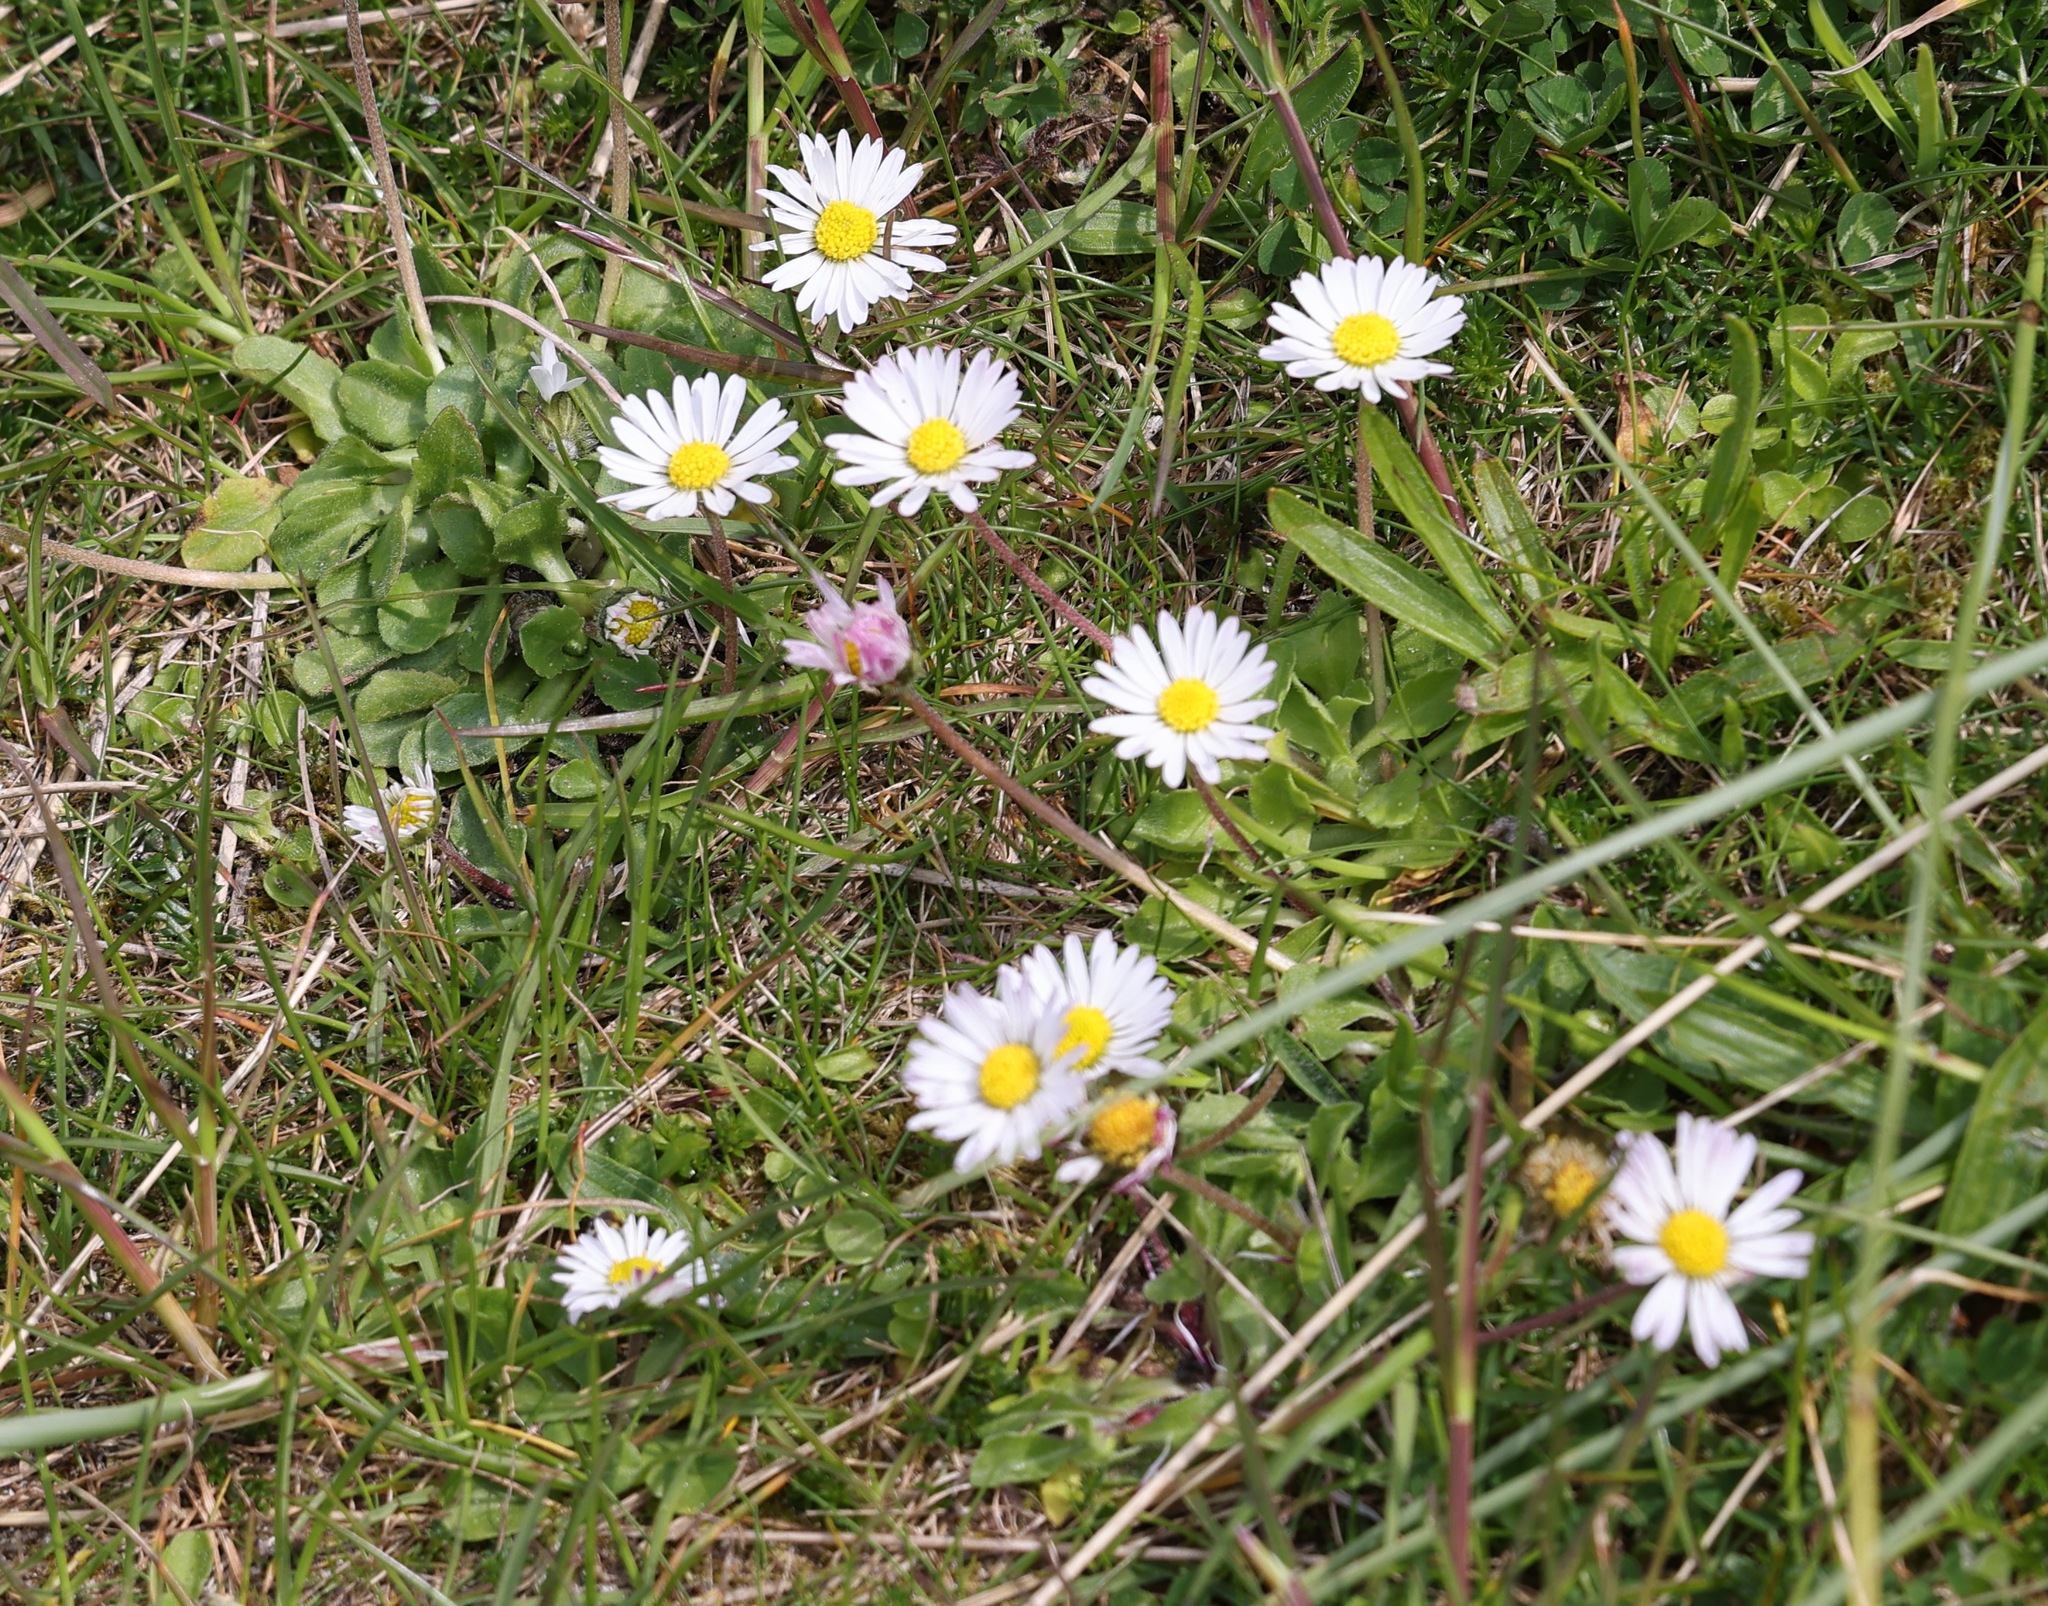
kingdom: Plantae
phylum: Tracheophyta
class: Magnoliopsida
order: Asterales
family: Asteraceae
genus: Bellis
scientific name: Bellis perennis
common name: Lawndaisy
